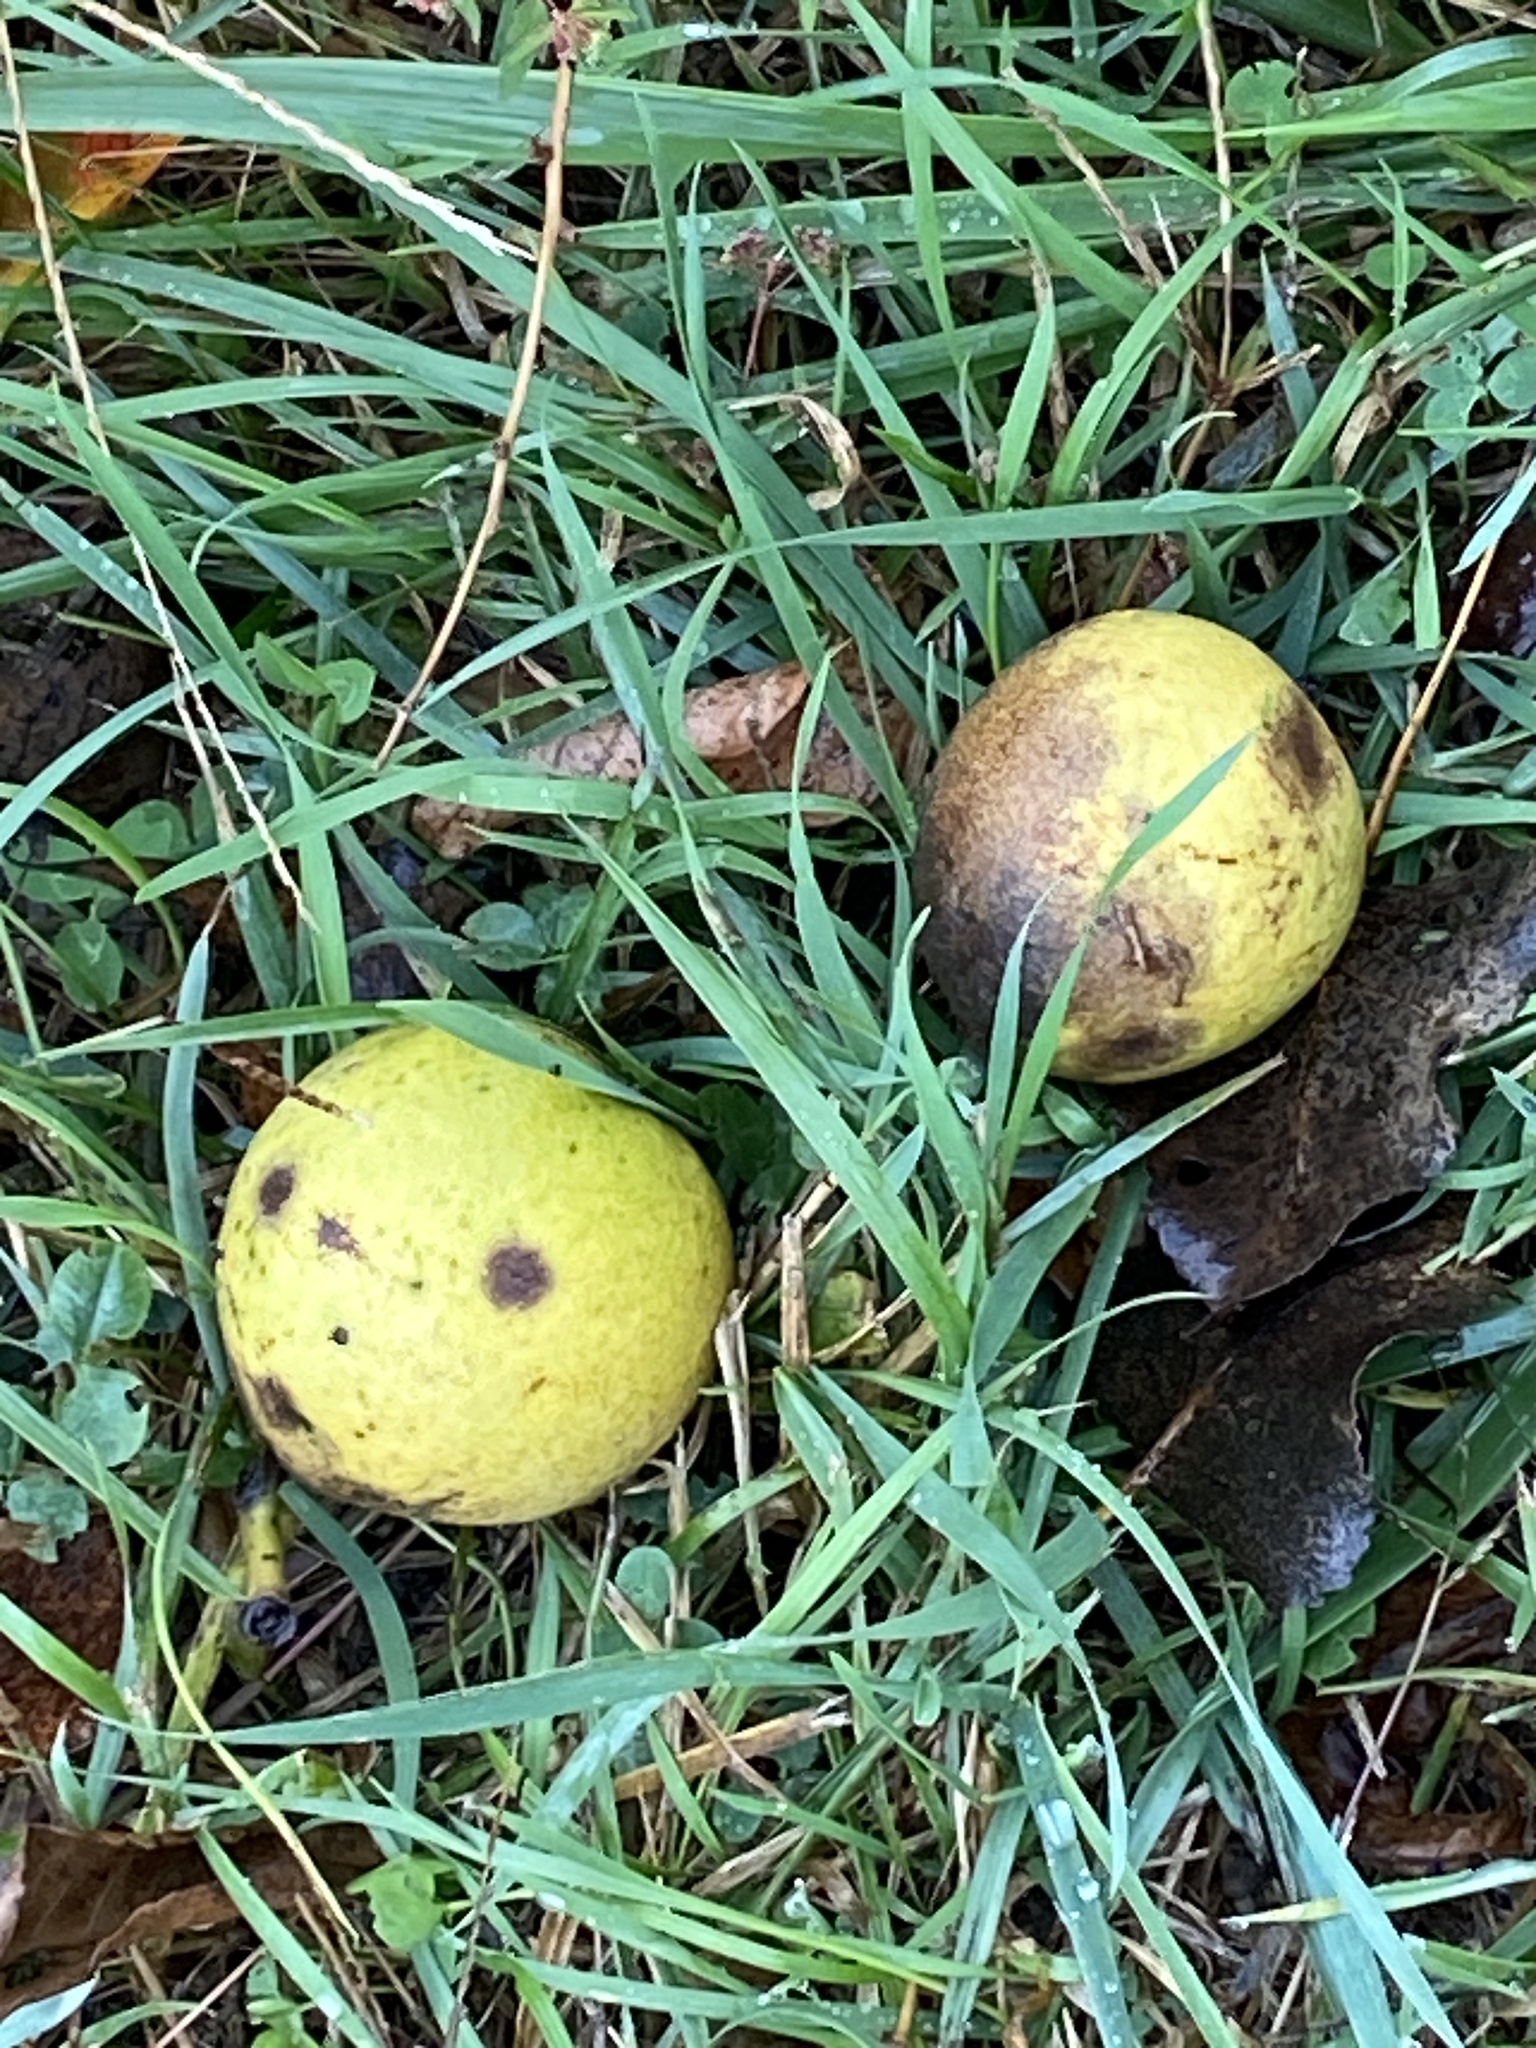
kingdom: Plantae
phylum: Tracheophyta
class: Magnoliopsida
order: Fagales
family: Juglandaceae
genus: Juglans
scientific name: Juglans nigra
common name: Black walnut
